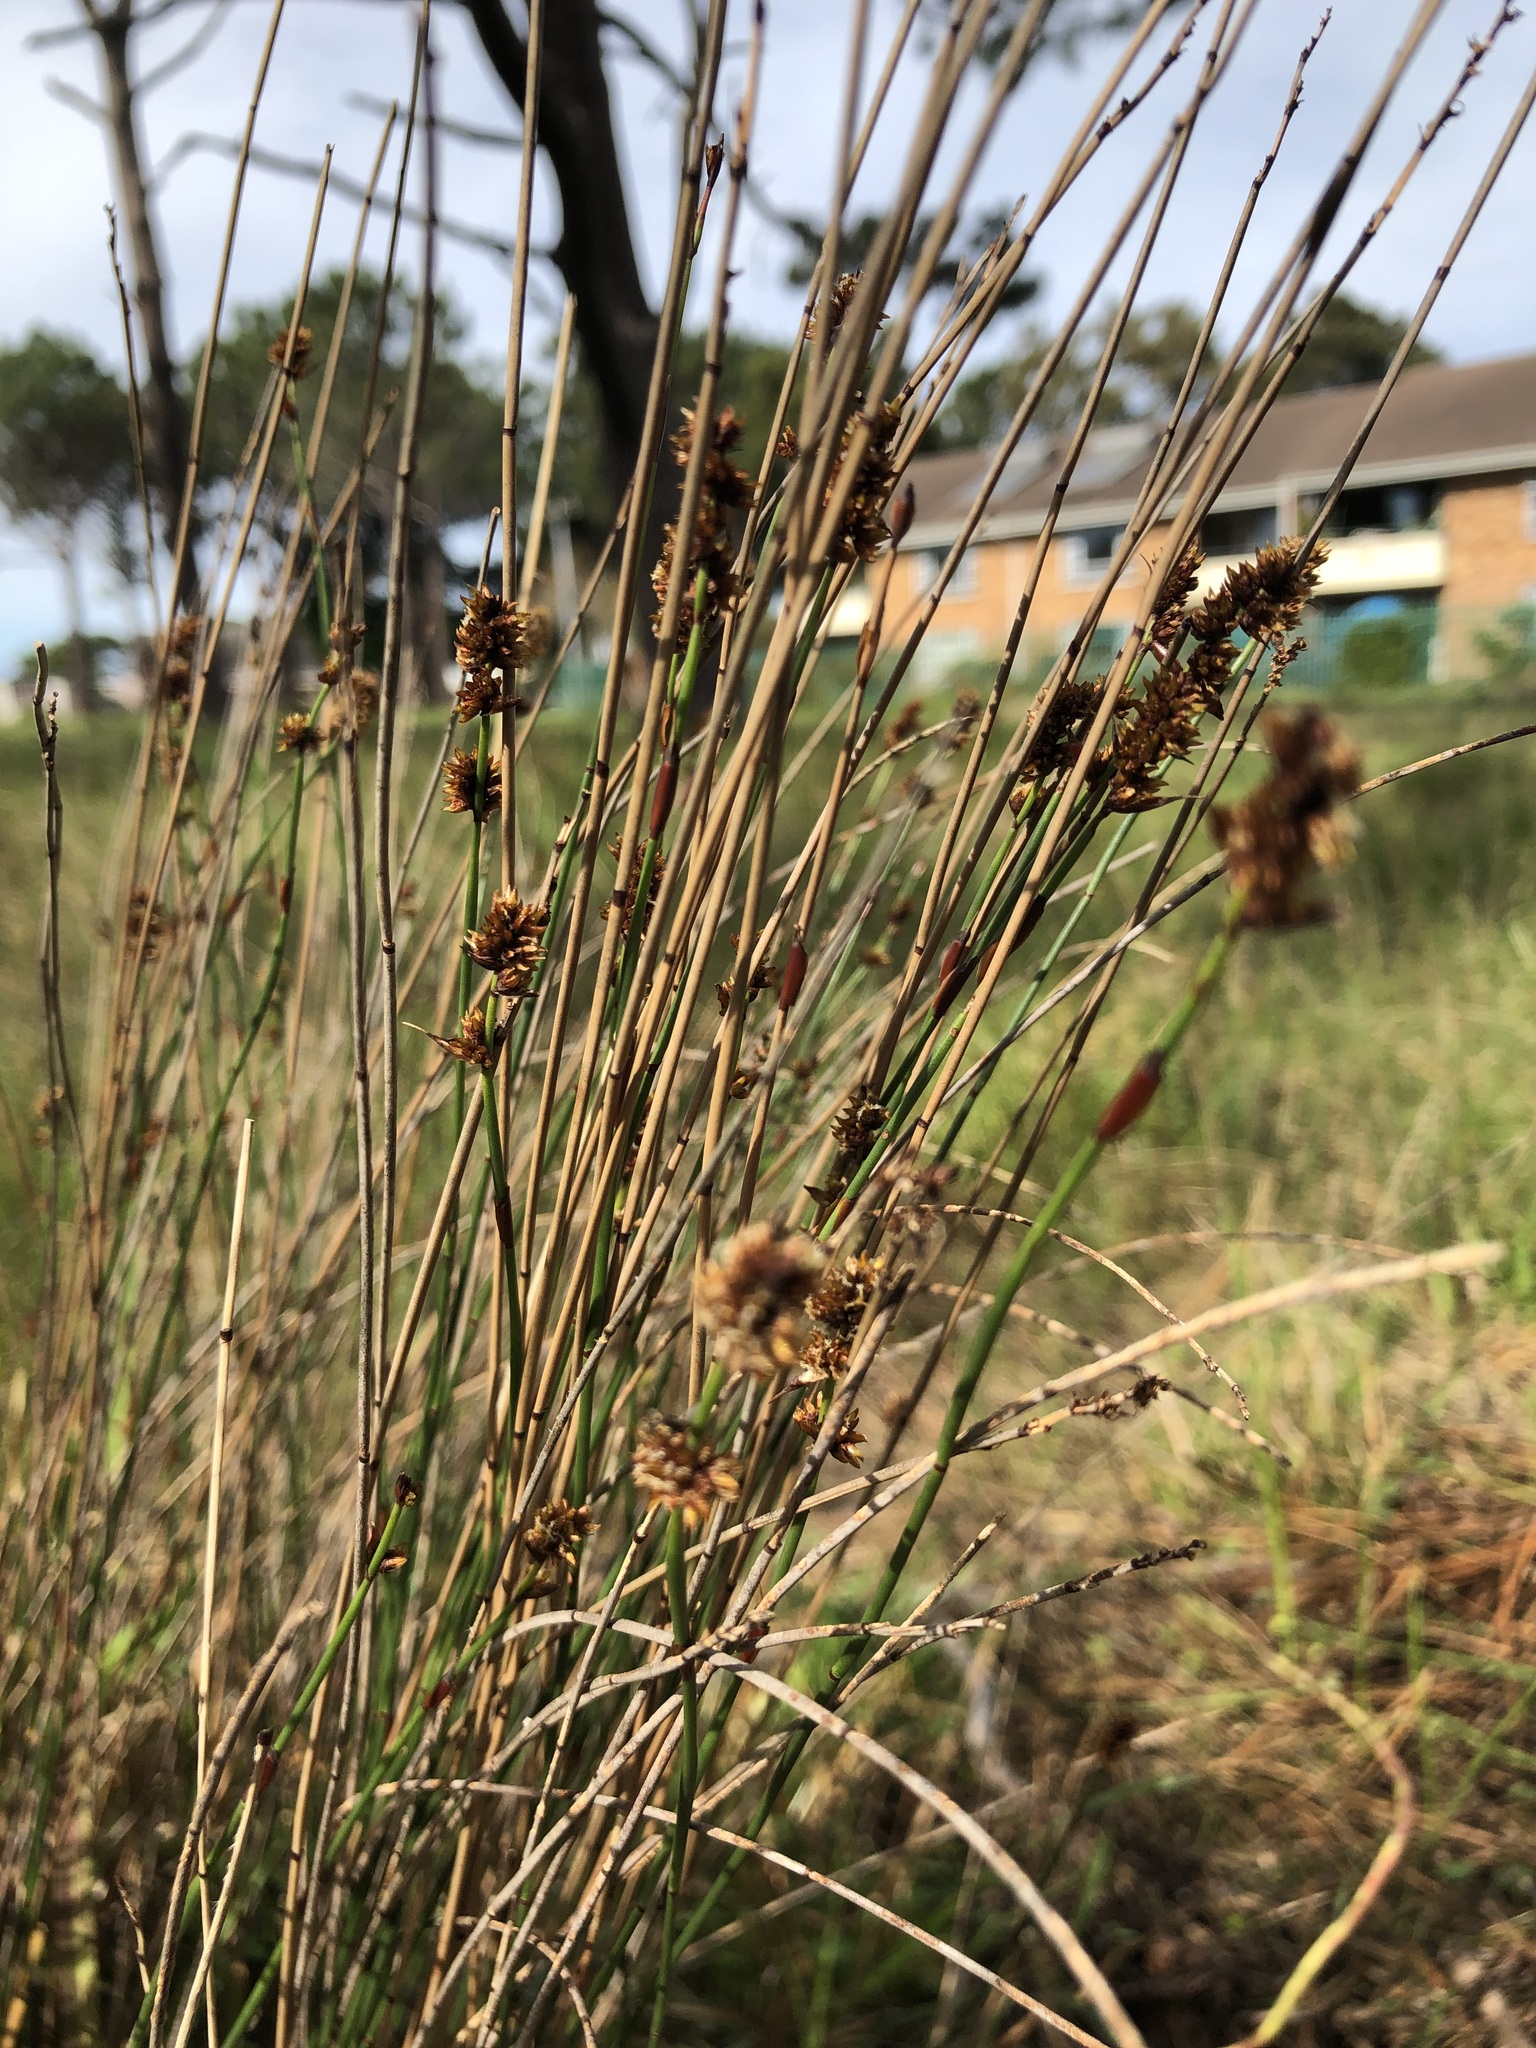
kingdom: Plantae
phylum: Tracheophyta
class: Liliopsida
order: Poales
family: Restionaceae
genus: Elegia
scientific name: Elegia nuda
